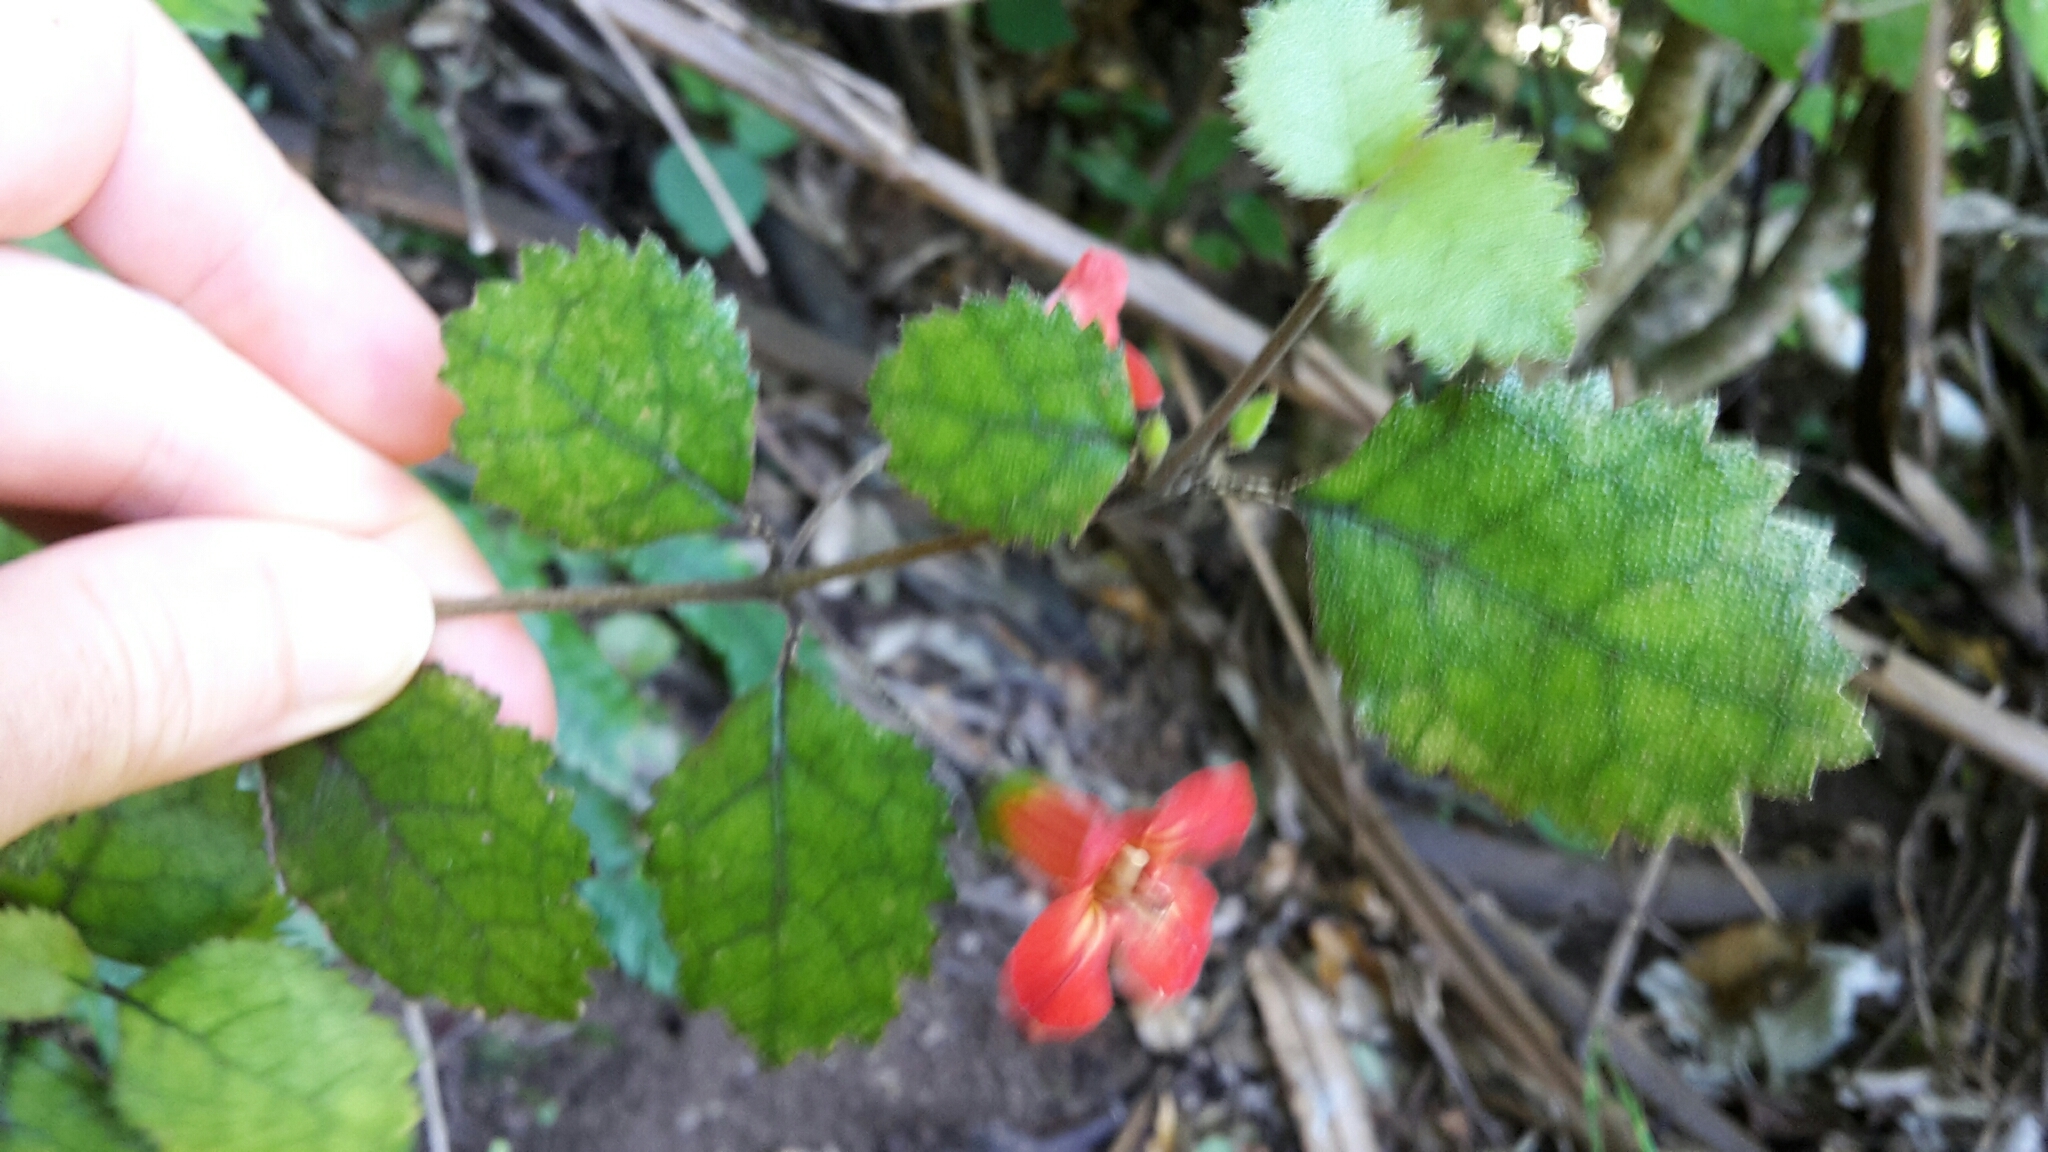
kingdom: Plantae
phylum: Tracheophyta
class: Magnoliopsida
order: Lamiales
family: Gesneriaceae
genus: Rhabdothamnus
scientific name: Rhabdothamnus solandri
